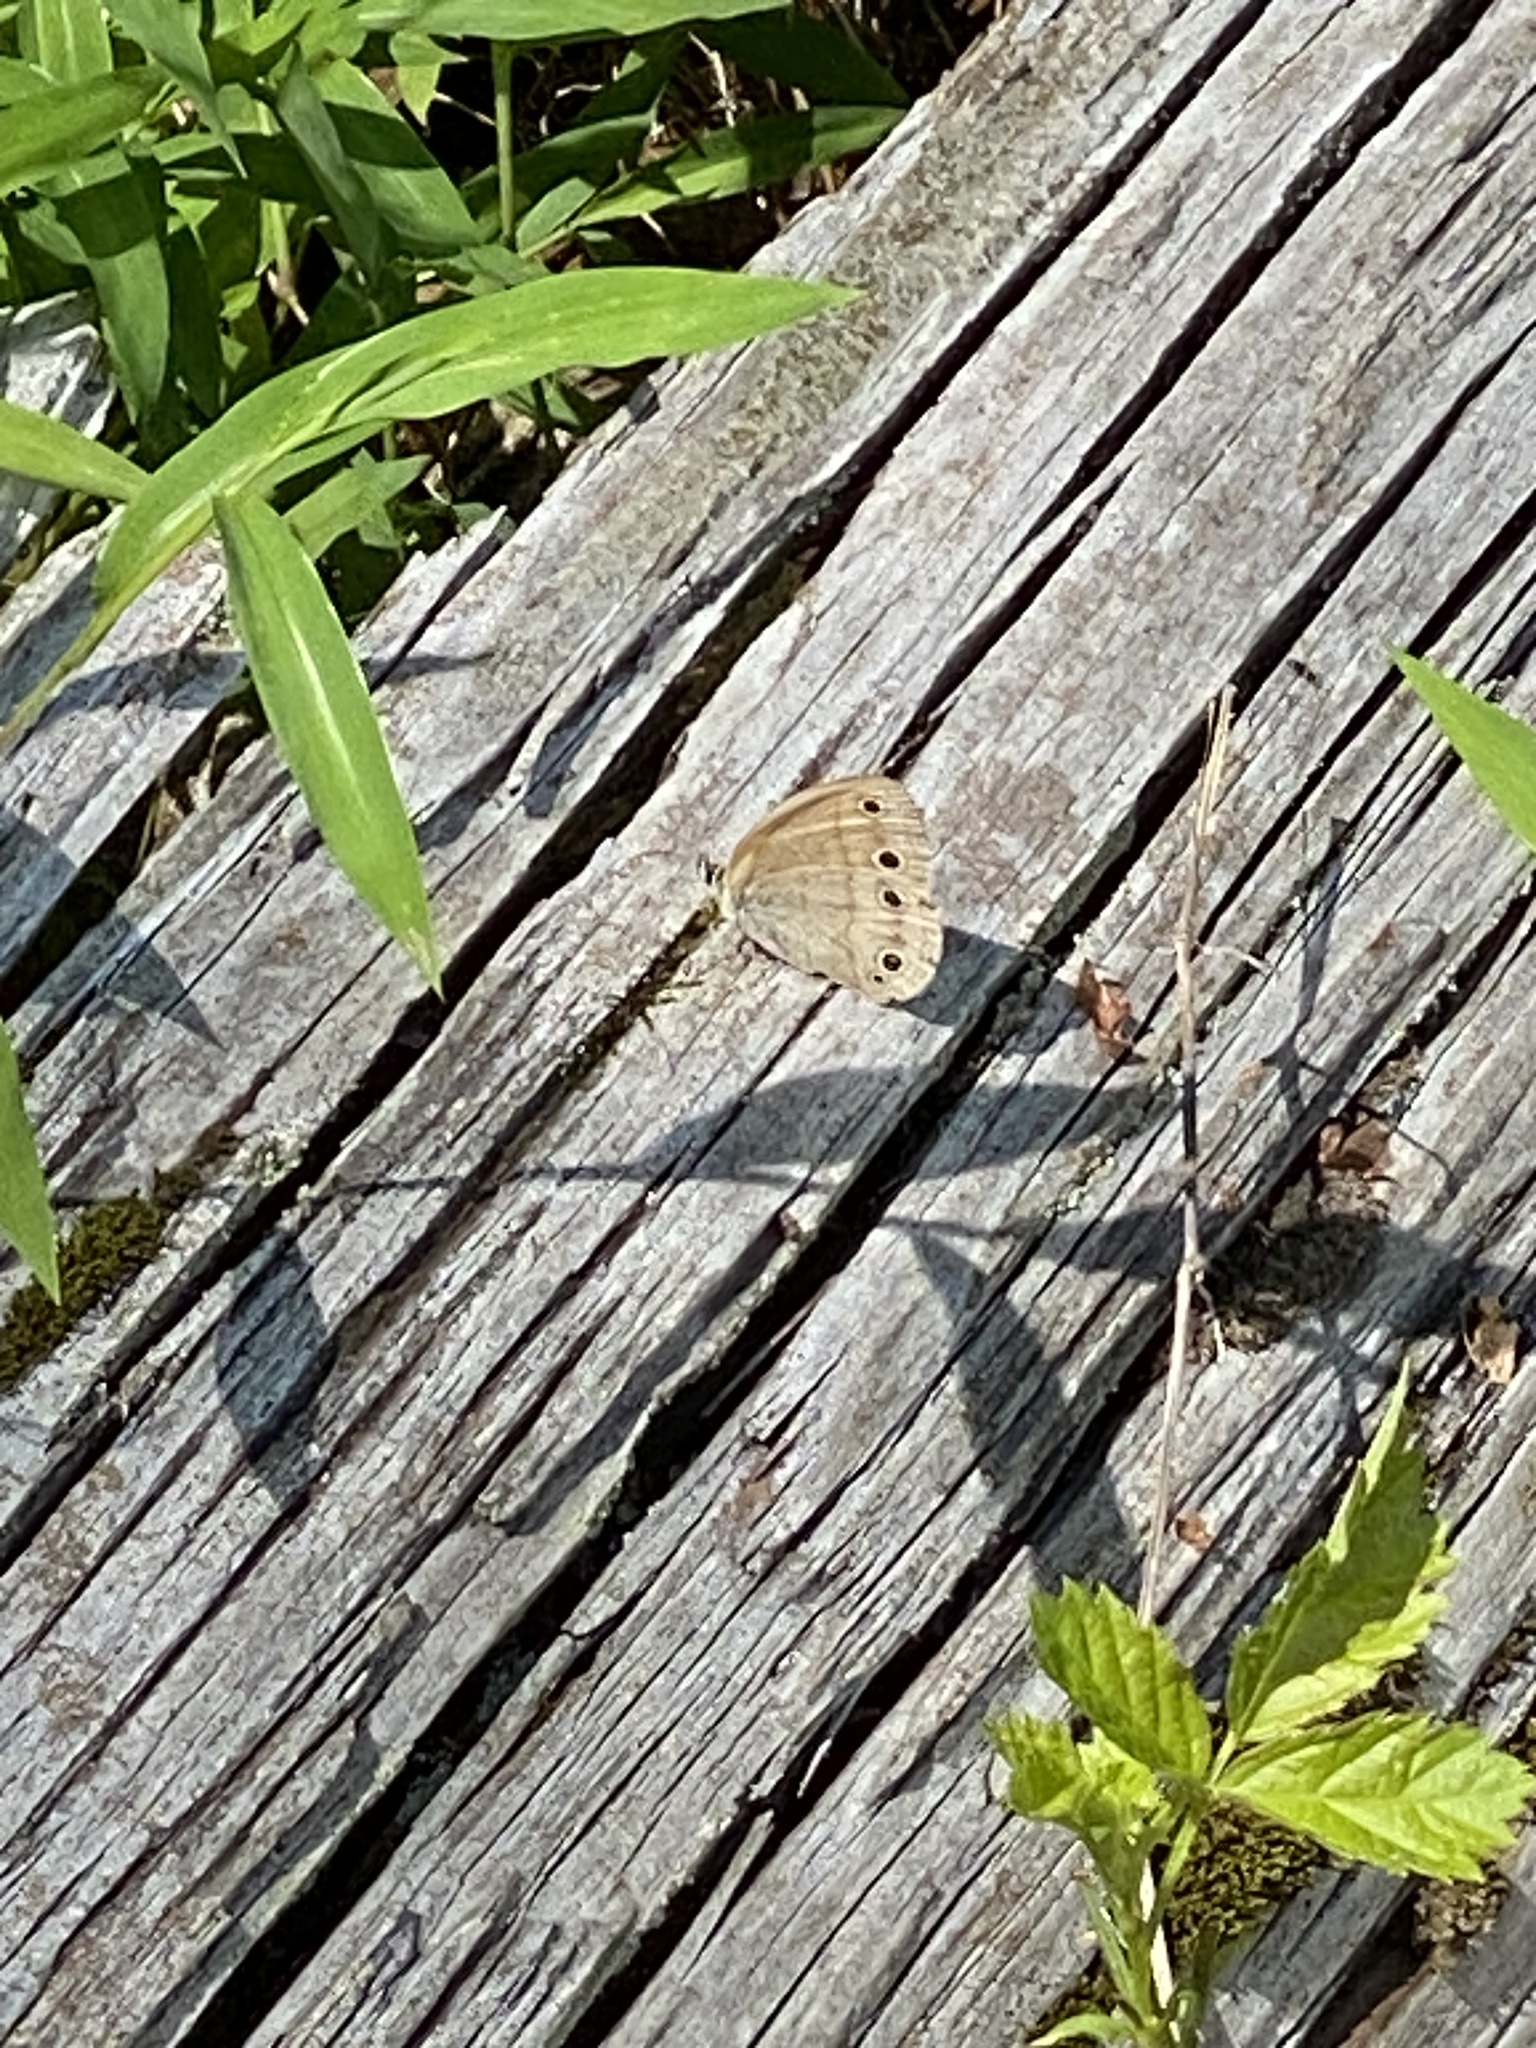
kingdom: Animalia
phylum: Arthropoda
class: Insecta
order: Lepidoptera
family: Nymphalidae
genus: Euptychia
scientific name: Euptychia cymela
